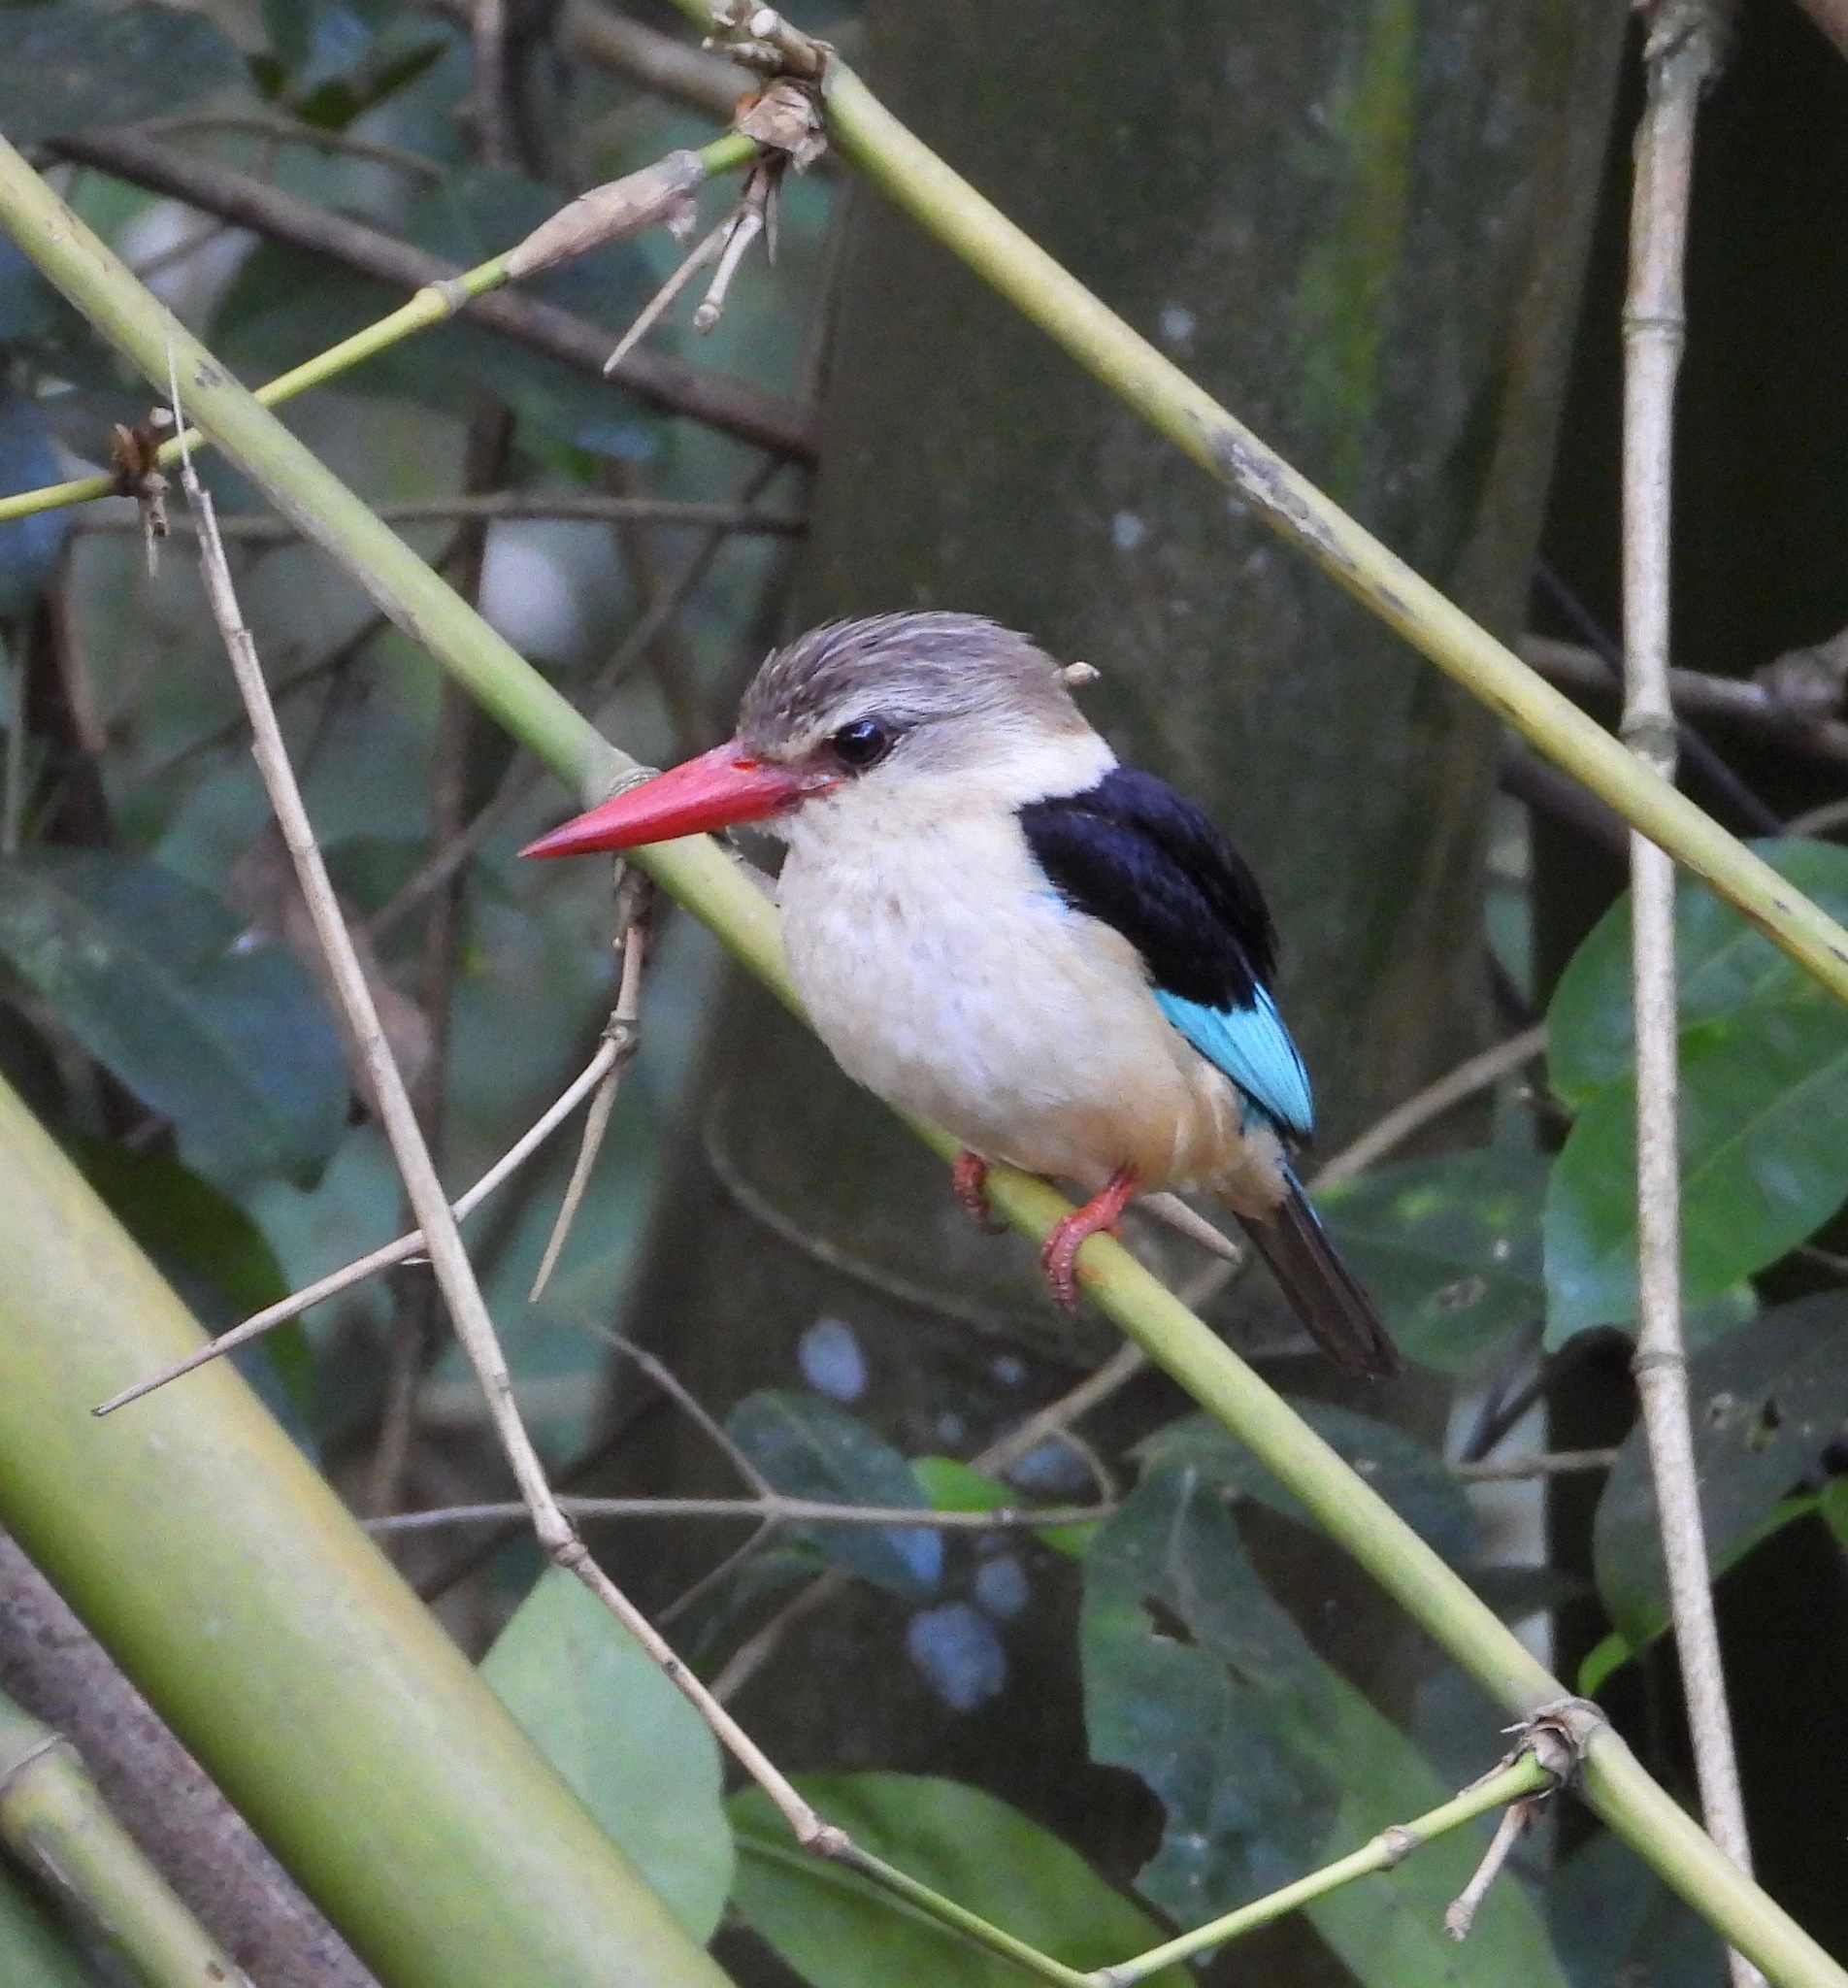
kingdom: Animalia
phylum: Chordata
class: Aves
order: Coraciiformes
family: Alcedinidae
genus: Halcyon
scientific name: Halcyon albiventris
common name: Brown-hooded kingfisher
